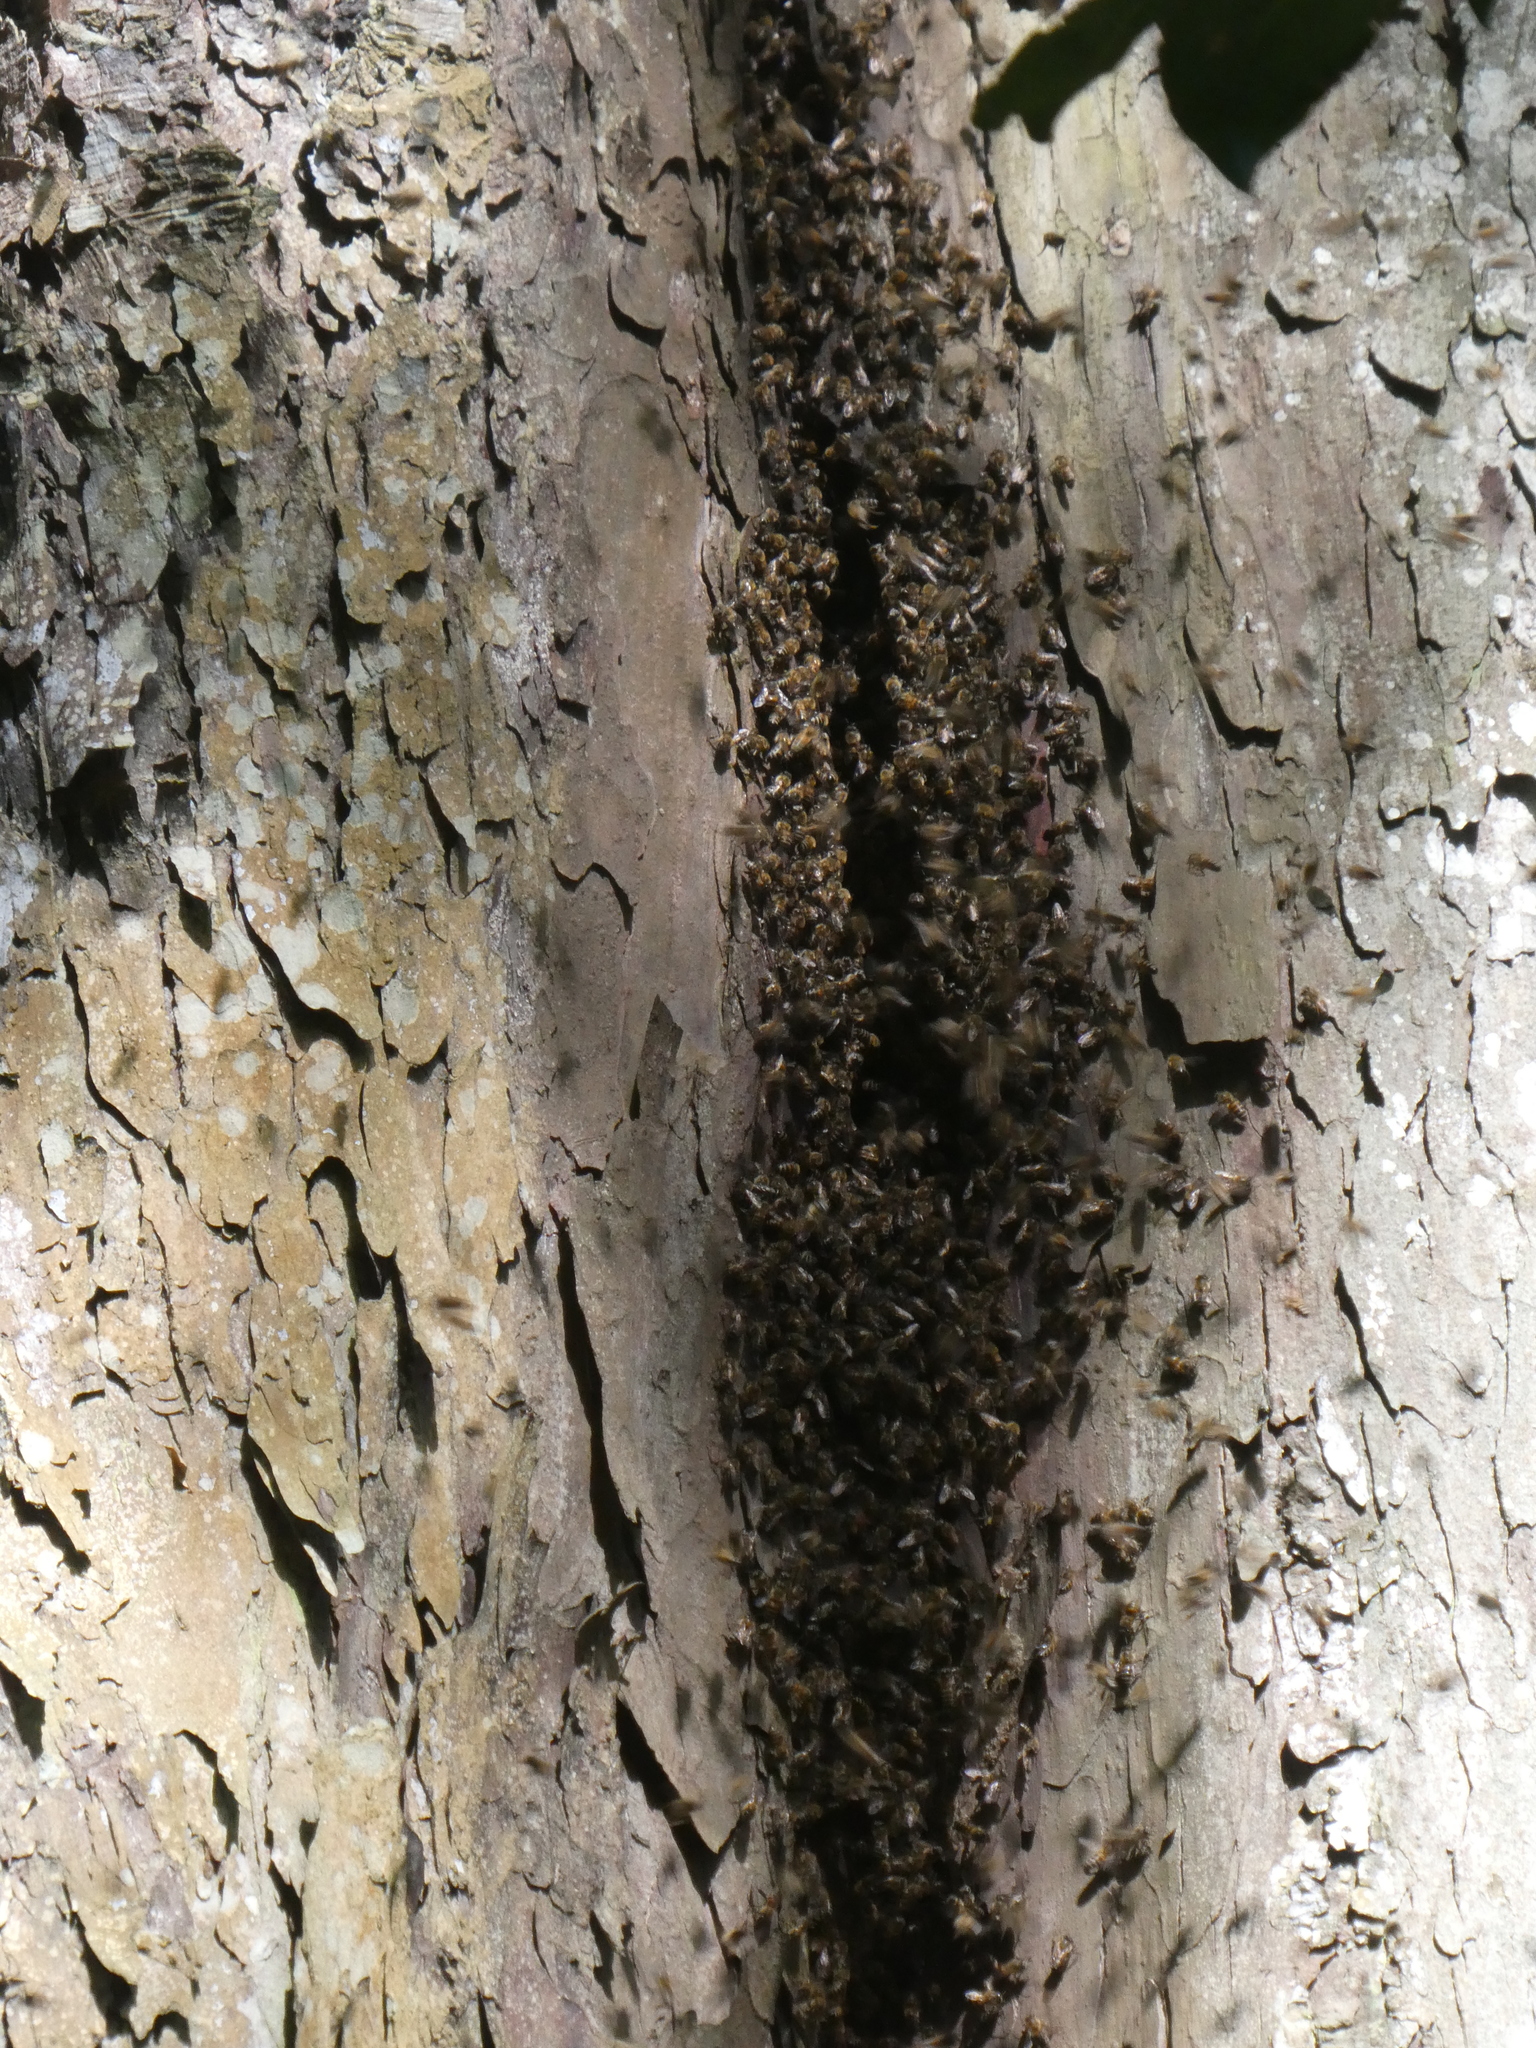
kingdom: Animalia
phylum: Arthropoda
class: Insecta
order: Hymenoptera
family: Apidae
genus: Apis
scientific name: Apis mellifera
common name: Honey bee
